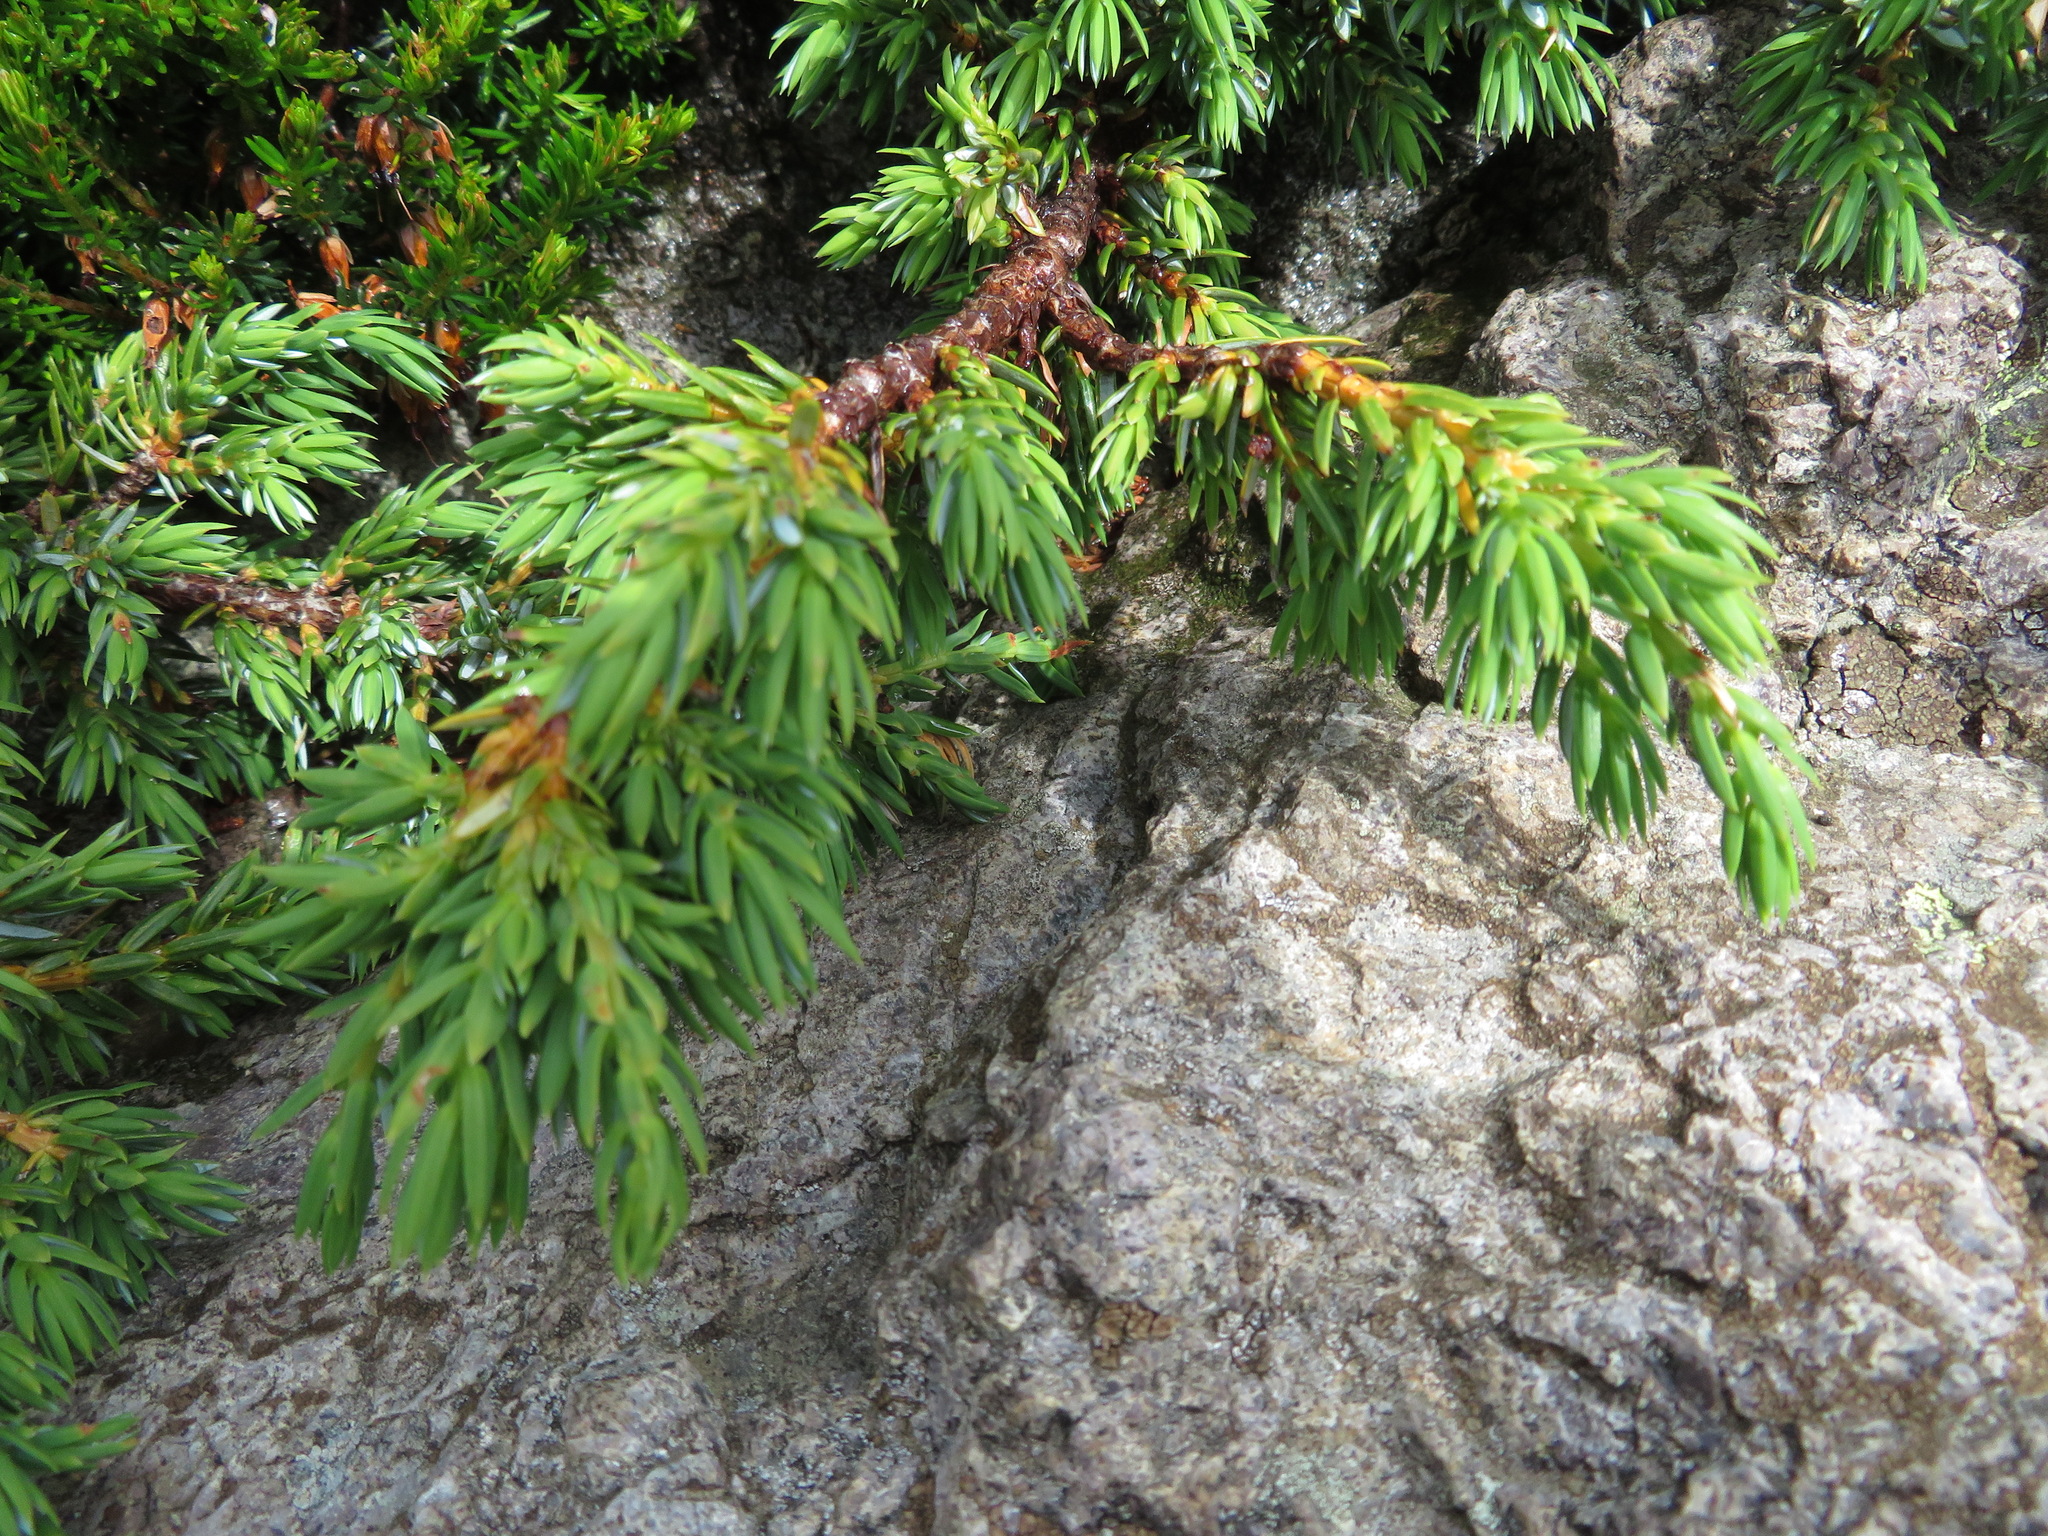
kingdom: Plantae
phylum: Tracheophyta
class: Pinopsida
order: Pinales
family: Cupressaceae
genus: Juniperus
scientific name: Juniperus communis
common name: Common juniper
